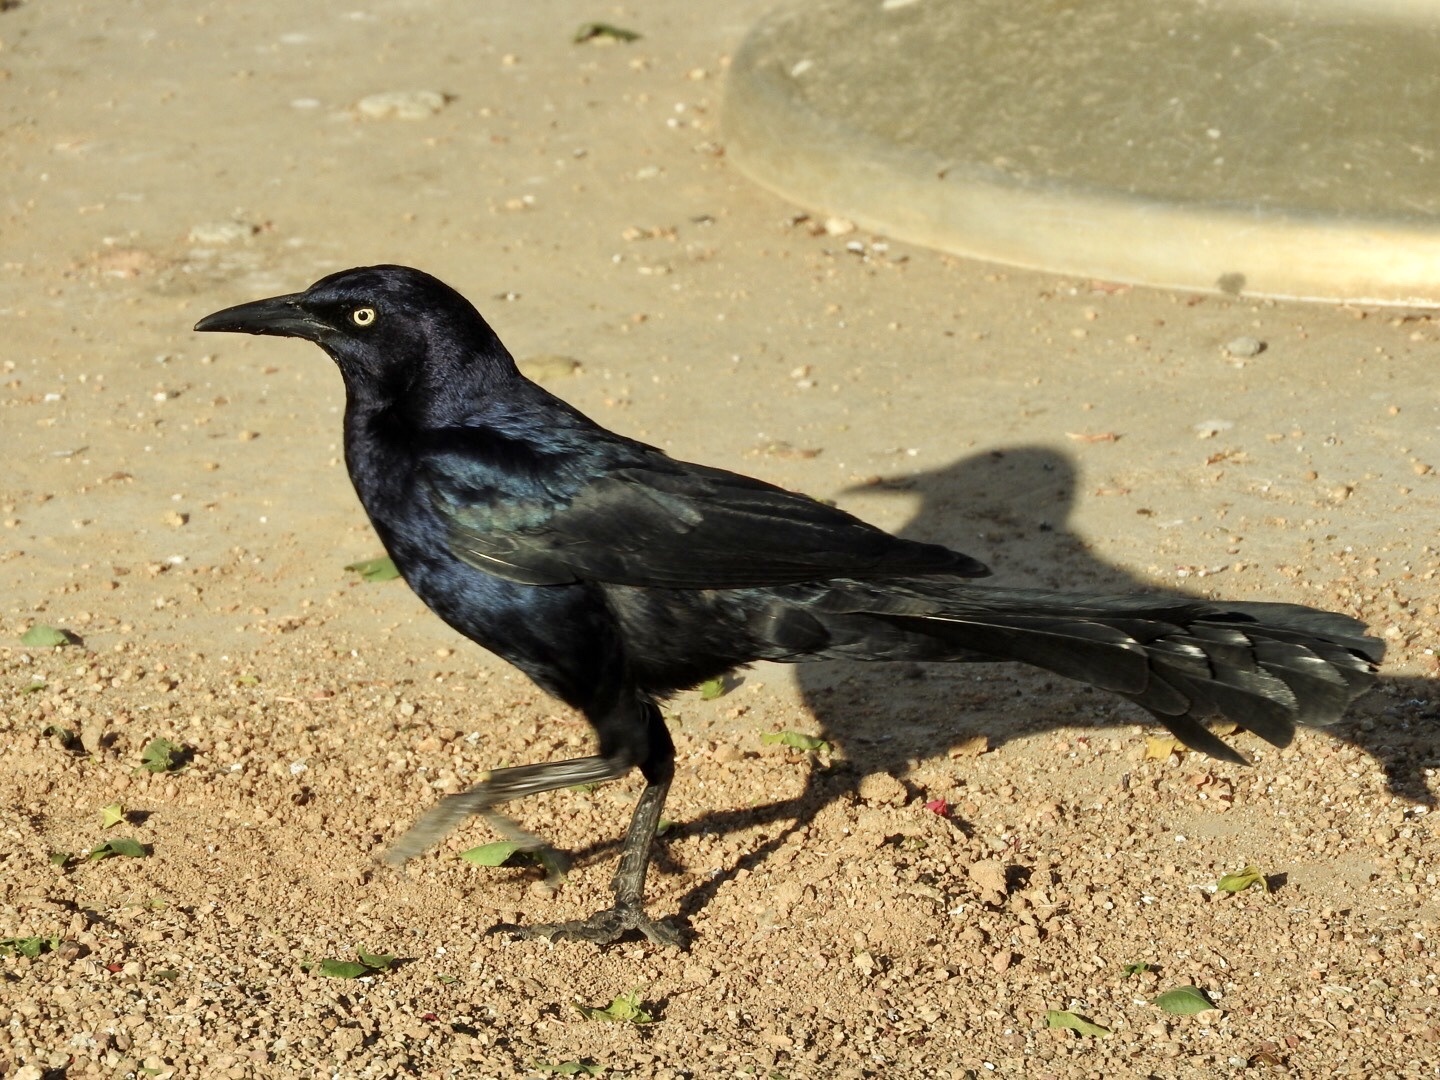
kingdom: Animalia
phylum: Chordata
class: Aves
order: Passeriformes
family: Icteridae
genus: Quiscalus
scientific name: Quiscalus mexicanus
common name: Great-tailed grackle
